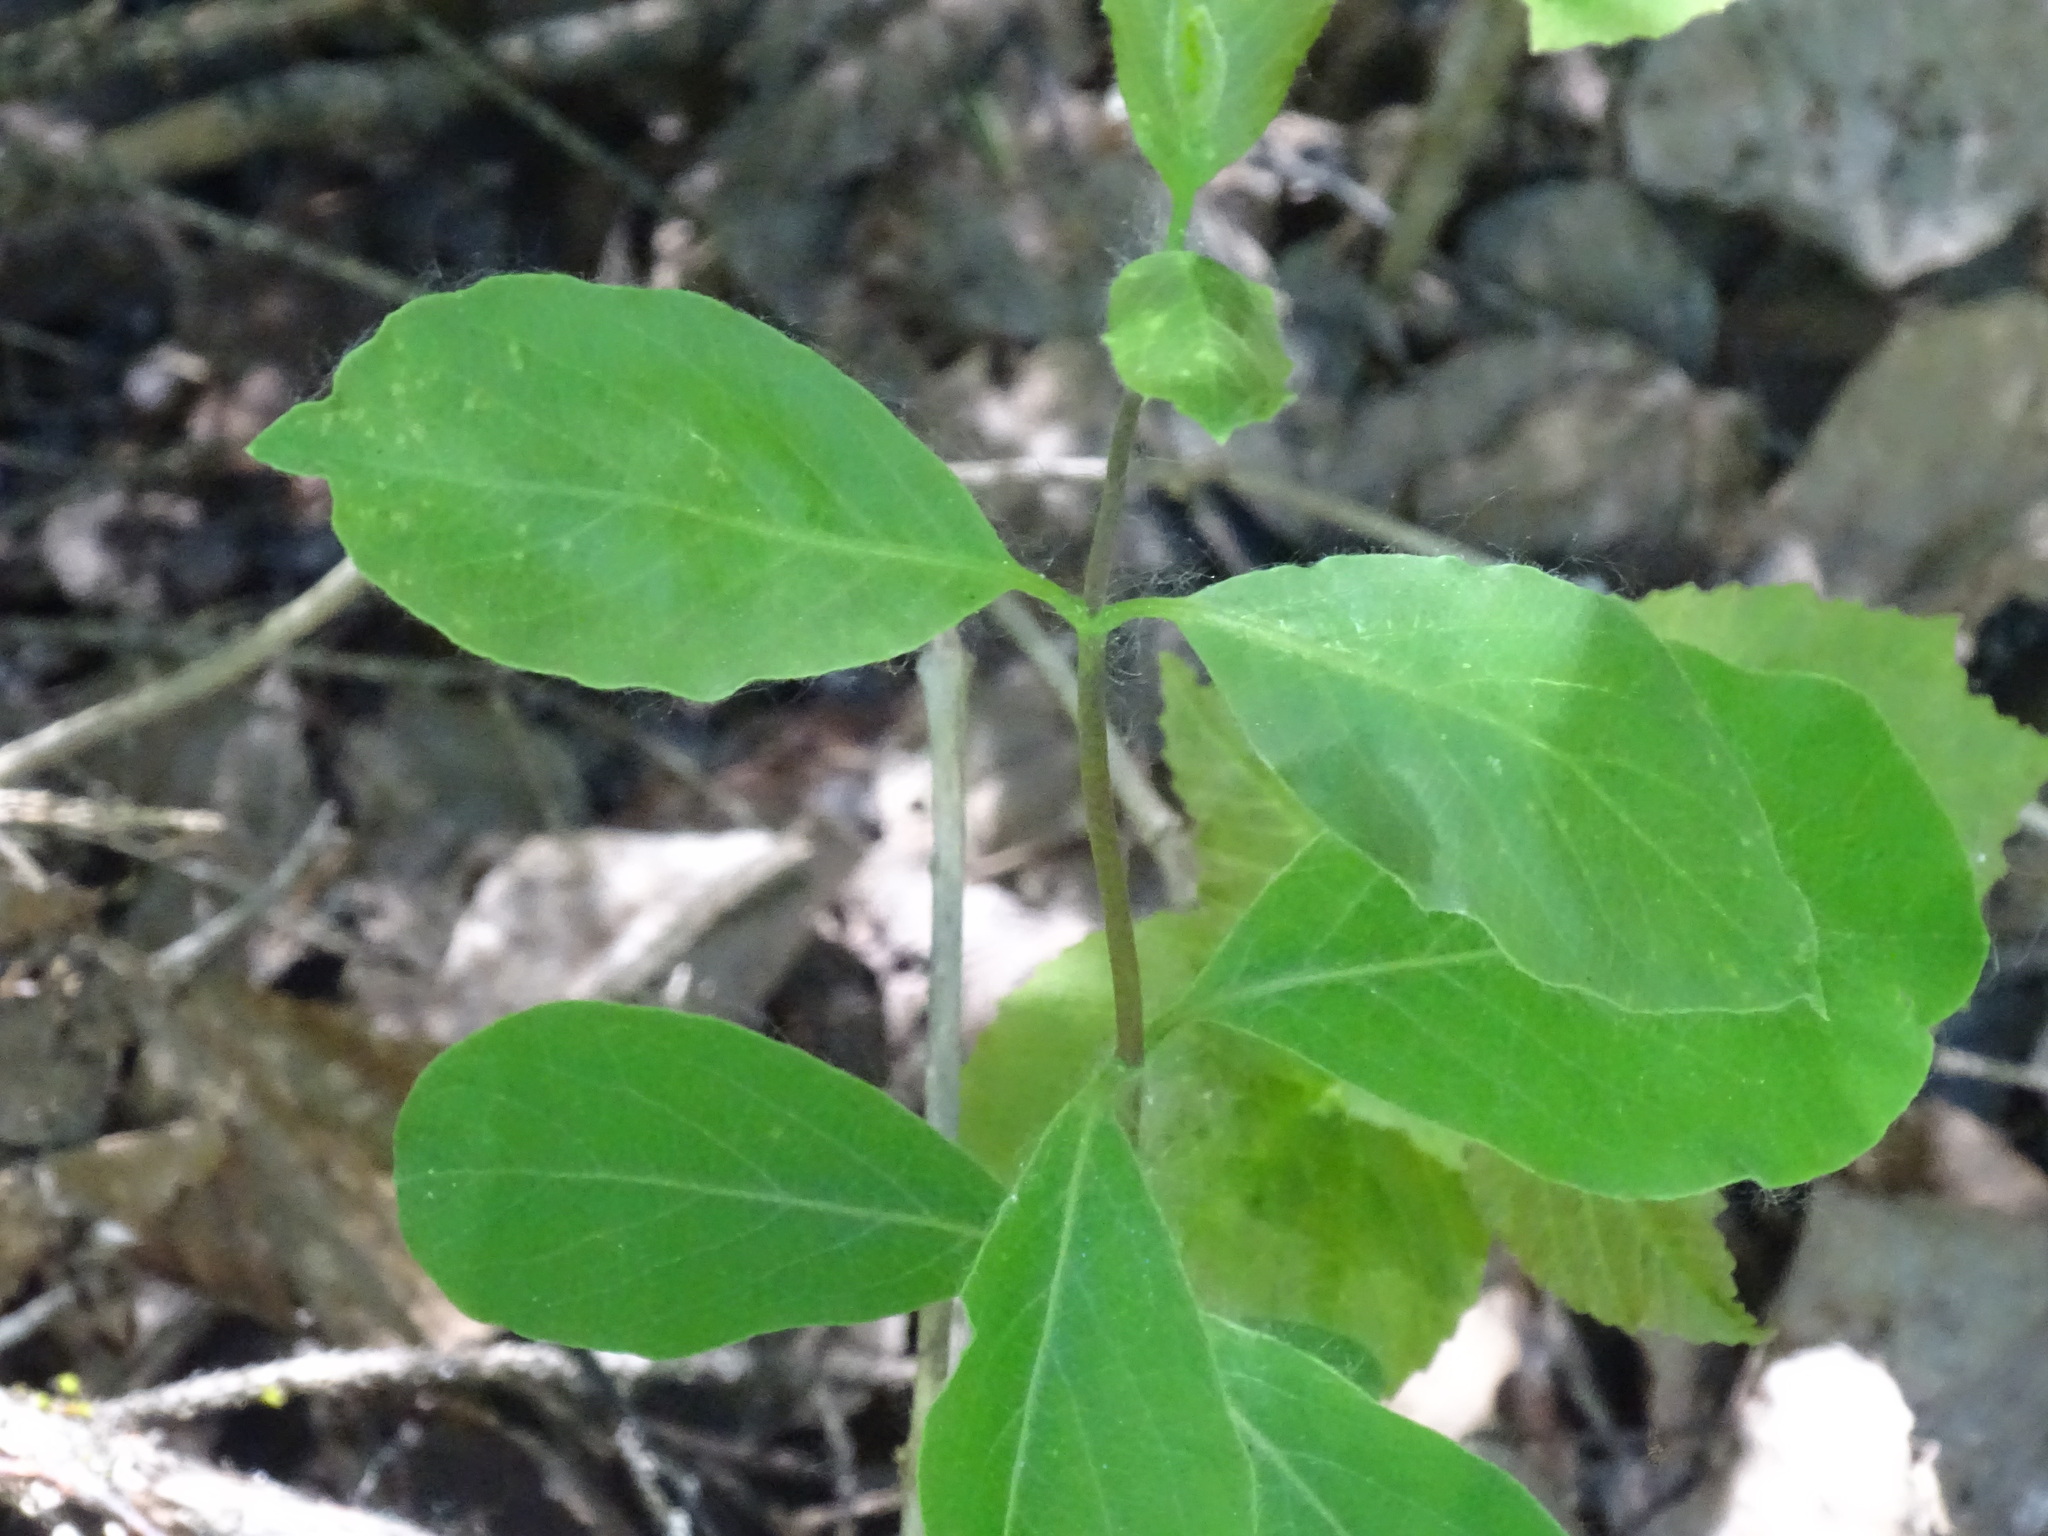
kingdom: Plantae
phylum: Tracheophyta
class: Magnoliopsida
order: Dipsacales
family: Caprifoliaceae
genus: Lonicera
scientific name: Lonicera dioica
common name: Limber honeysuckle
